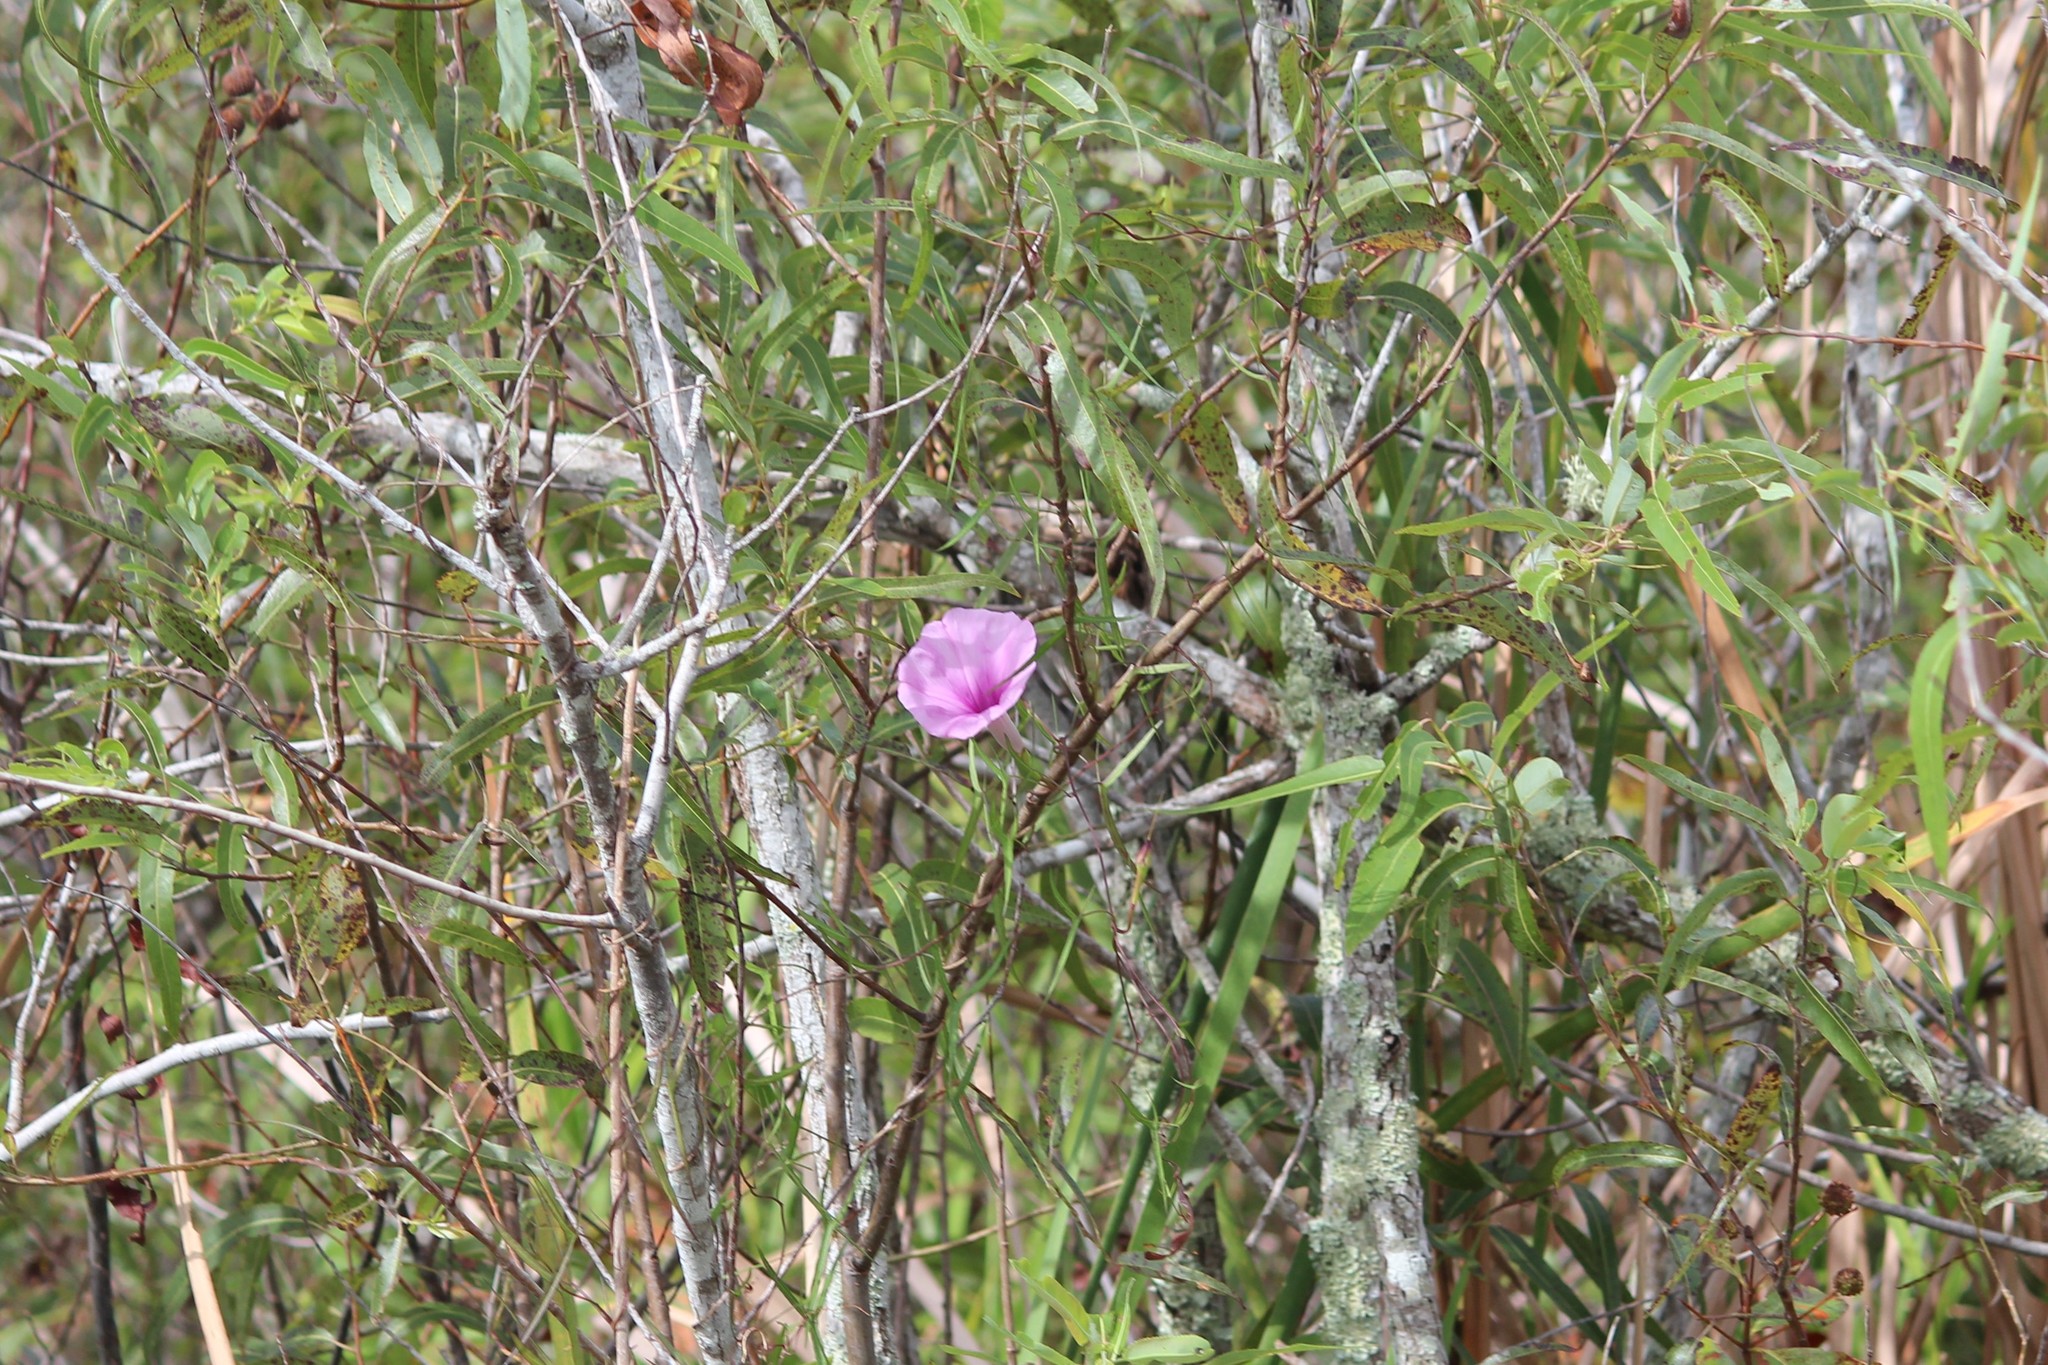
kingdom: Plantae
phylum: Tracheophyta
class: Magnoliopsida
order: Solanales
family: Convolvulaceae
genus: Ipomoea
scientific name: Ipomoea sagittata
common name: Saltmarsh morning glory
